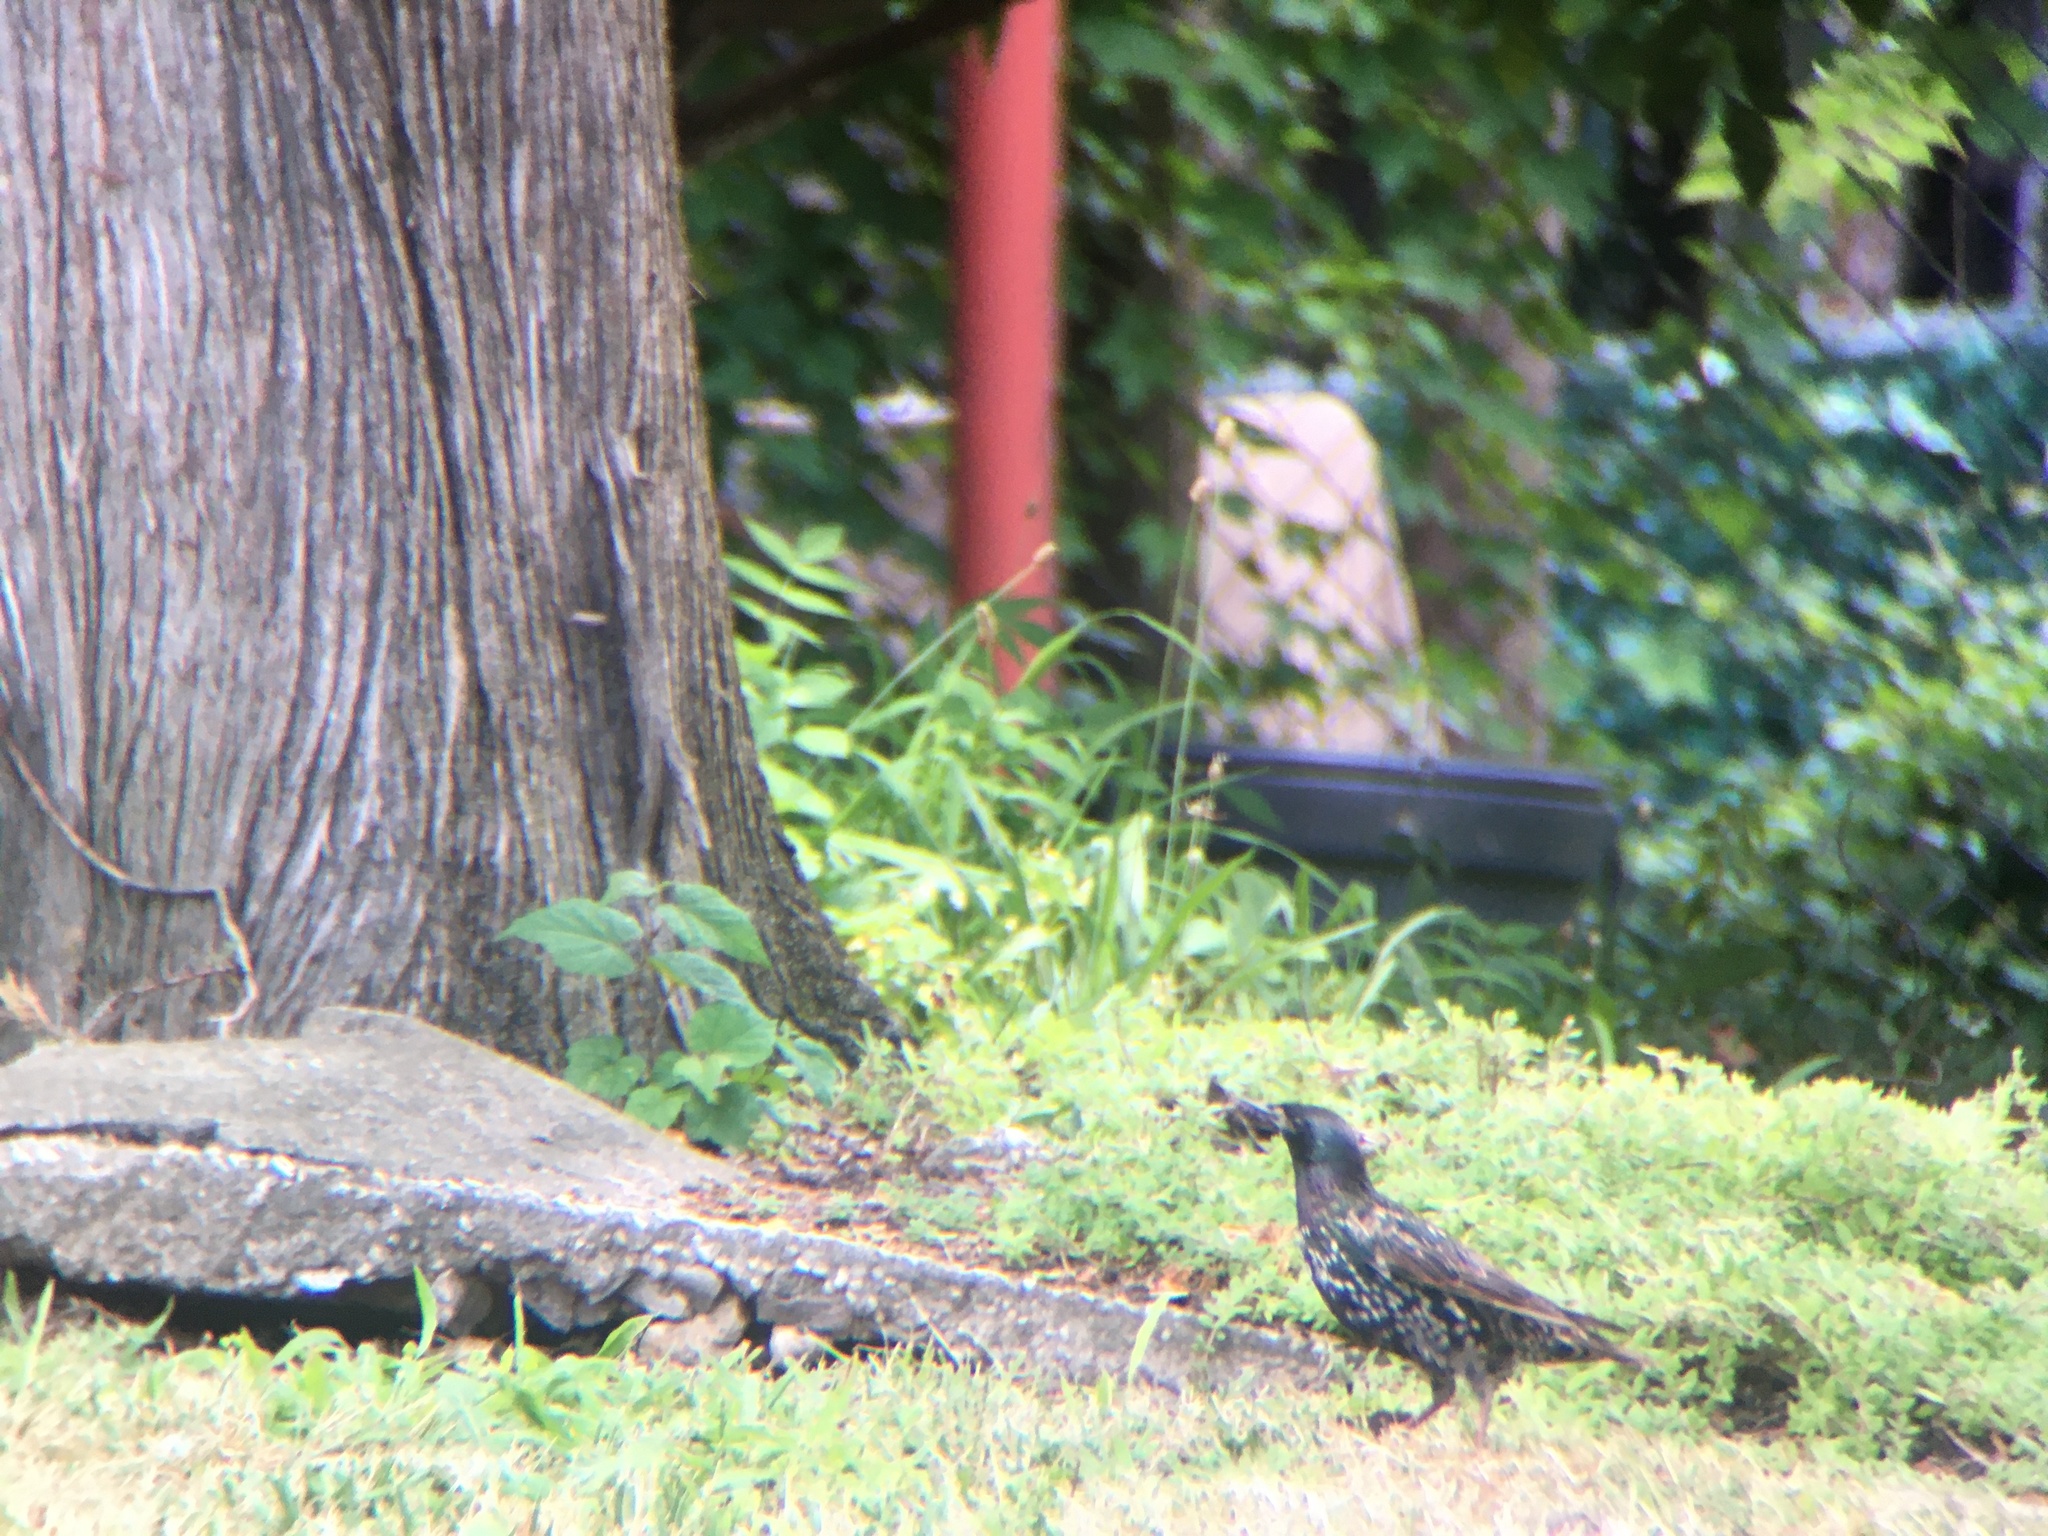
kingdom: Animalia
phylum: Chordata
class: Aves
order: Passeriformes
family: Sturnidae
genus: Sturnus
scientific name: Sturnus vulgaris
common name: Common starling
